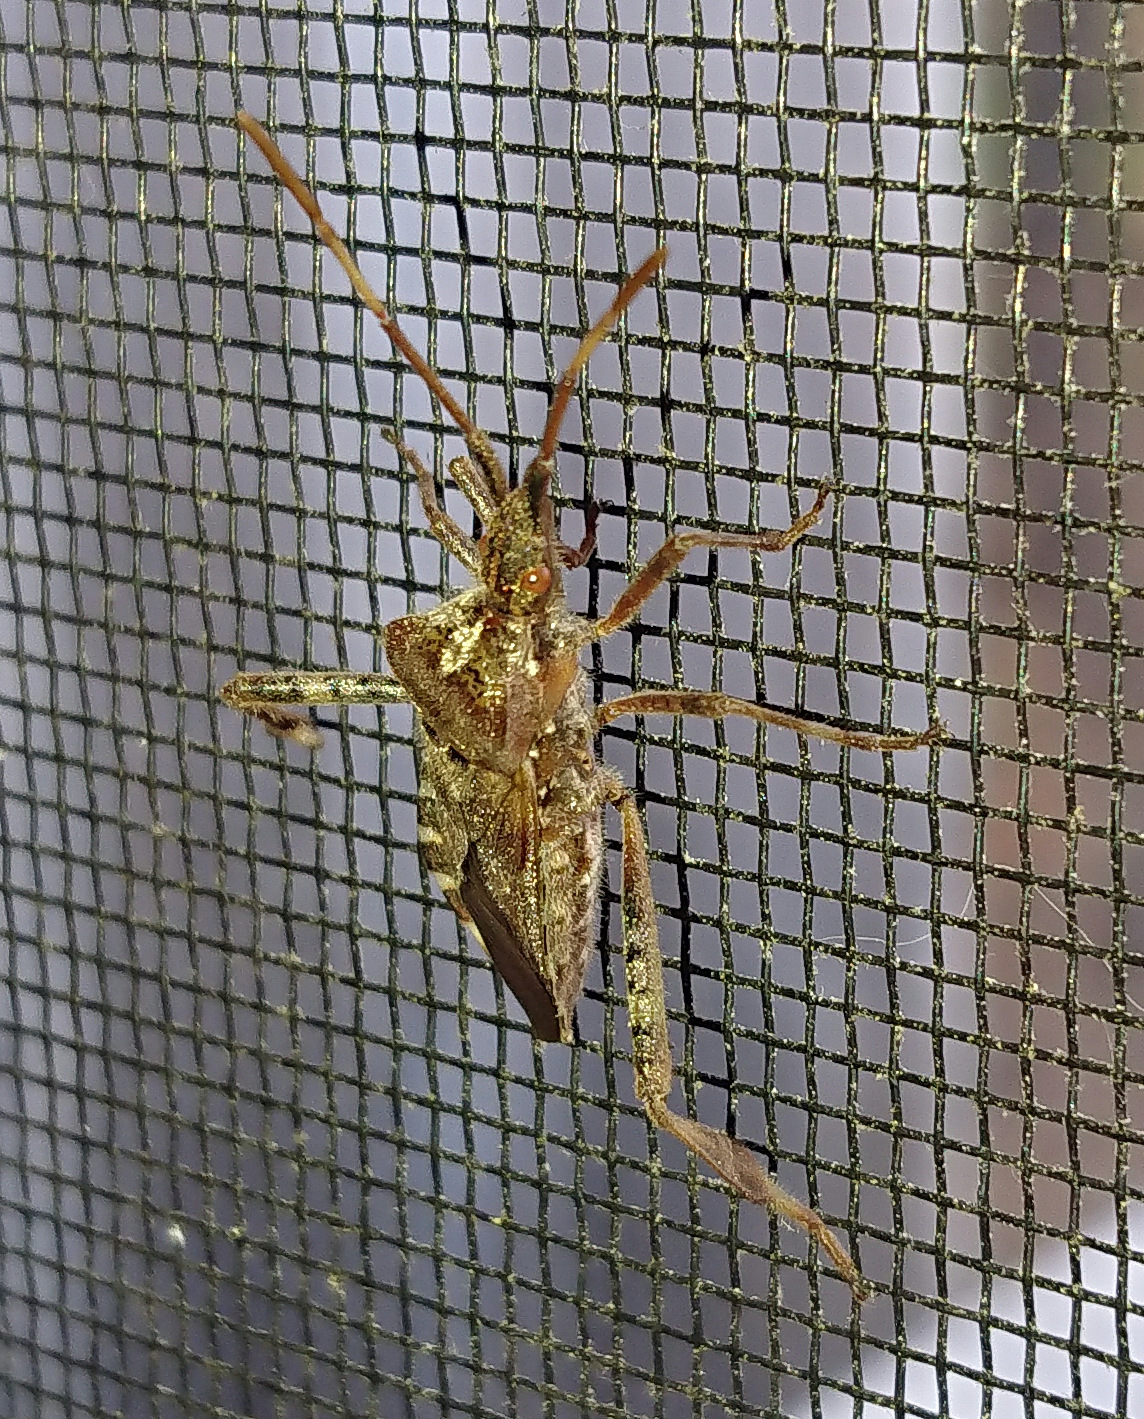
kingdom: Animalia
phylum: Arthropoda
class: Insecta
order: Hemiptera
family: Coreidae
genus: Leptoglossus
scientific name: Leptoglossus occidentalis
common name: Western conifer-seed bug
